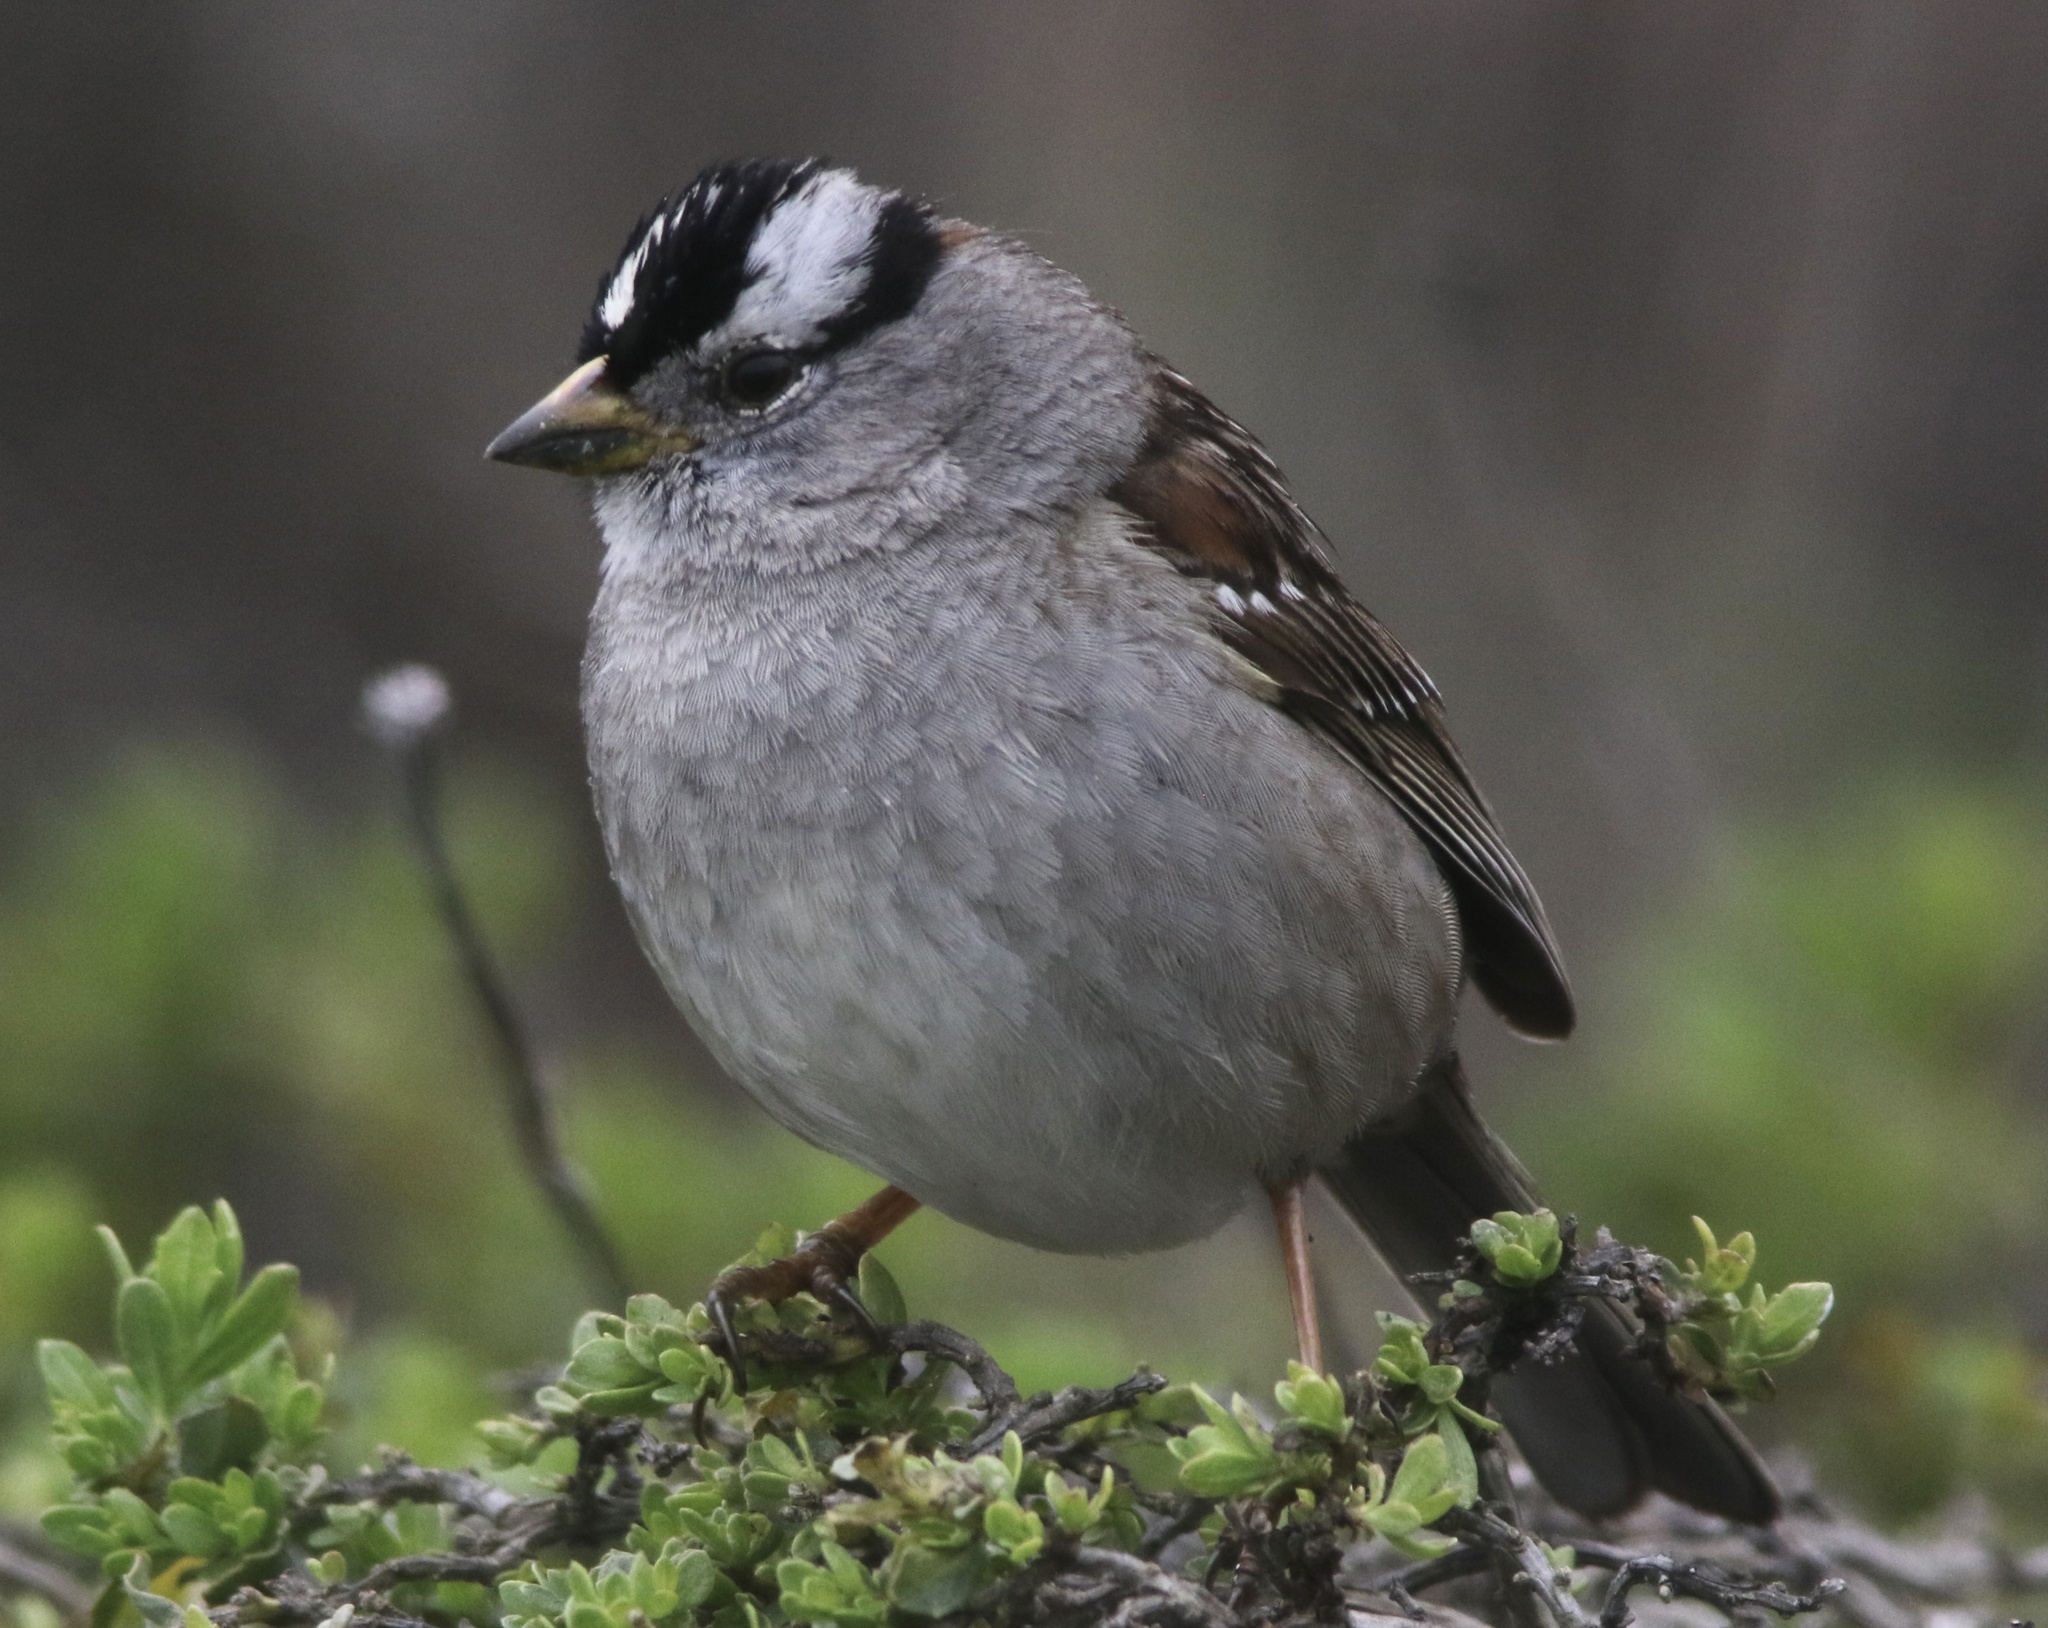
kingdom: Animalia
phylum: Chordata
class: Aves
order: Passeriformes
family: Passerellidae
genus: Zonotrichia
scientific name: Zonotrichia leucophrys
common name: White-crowned sparrow
